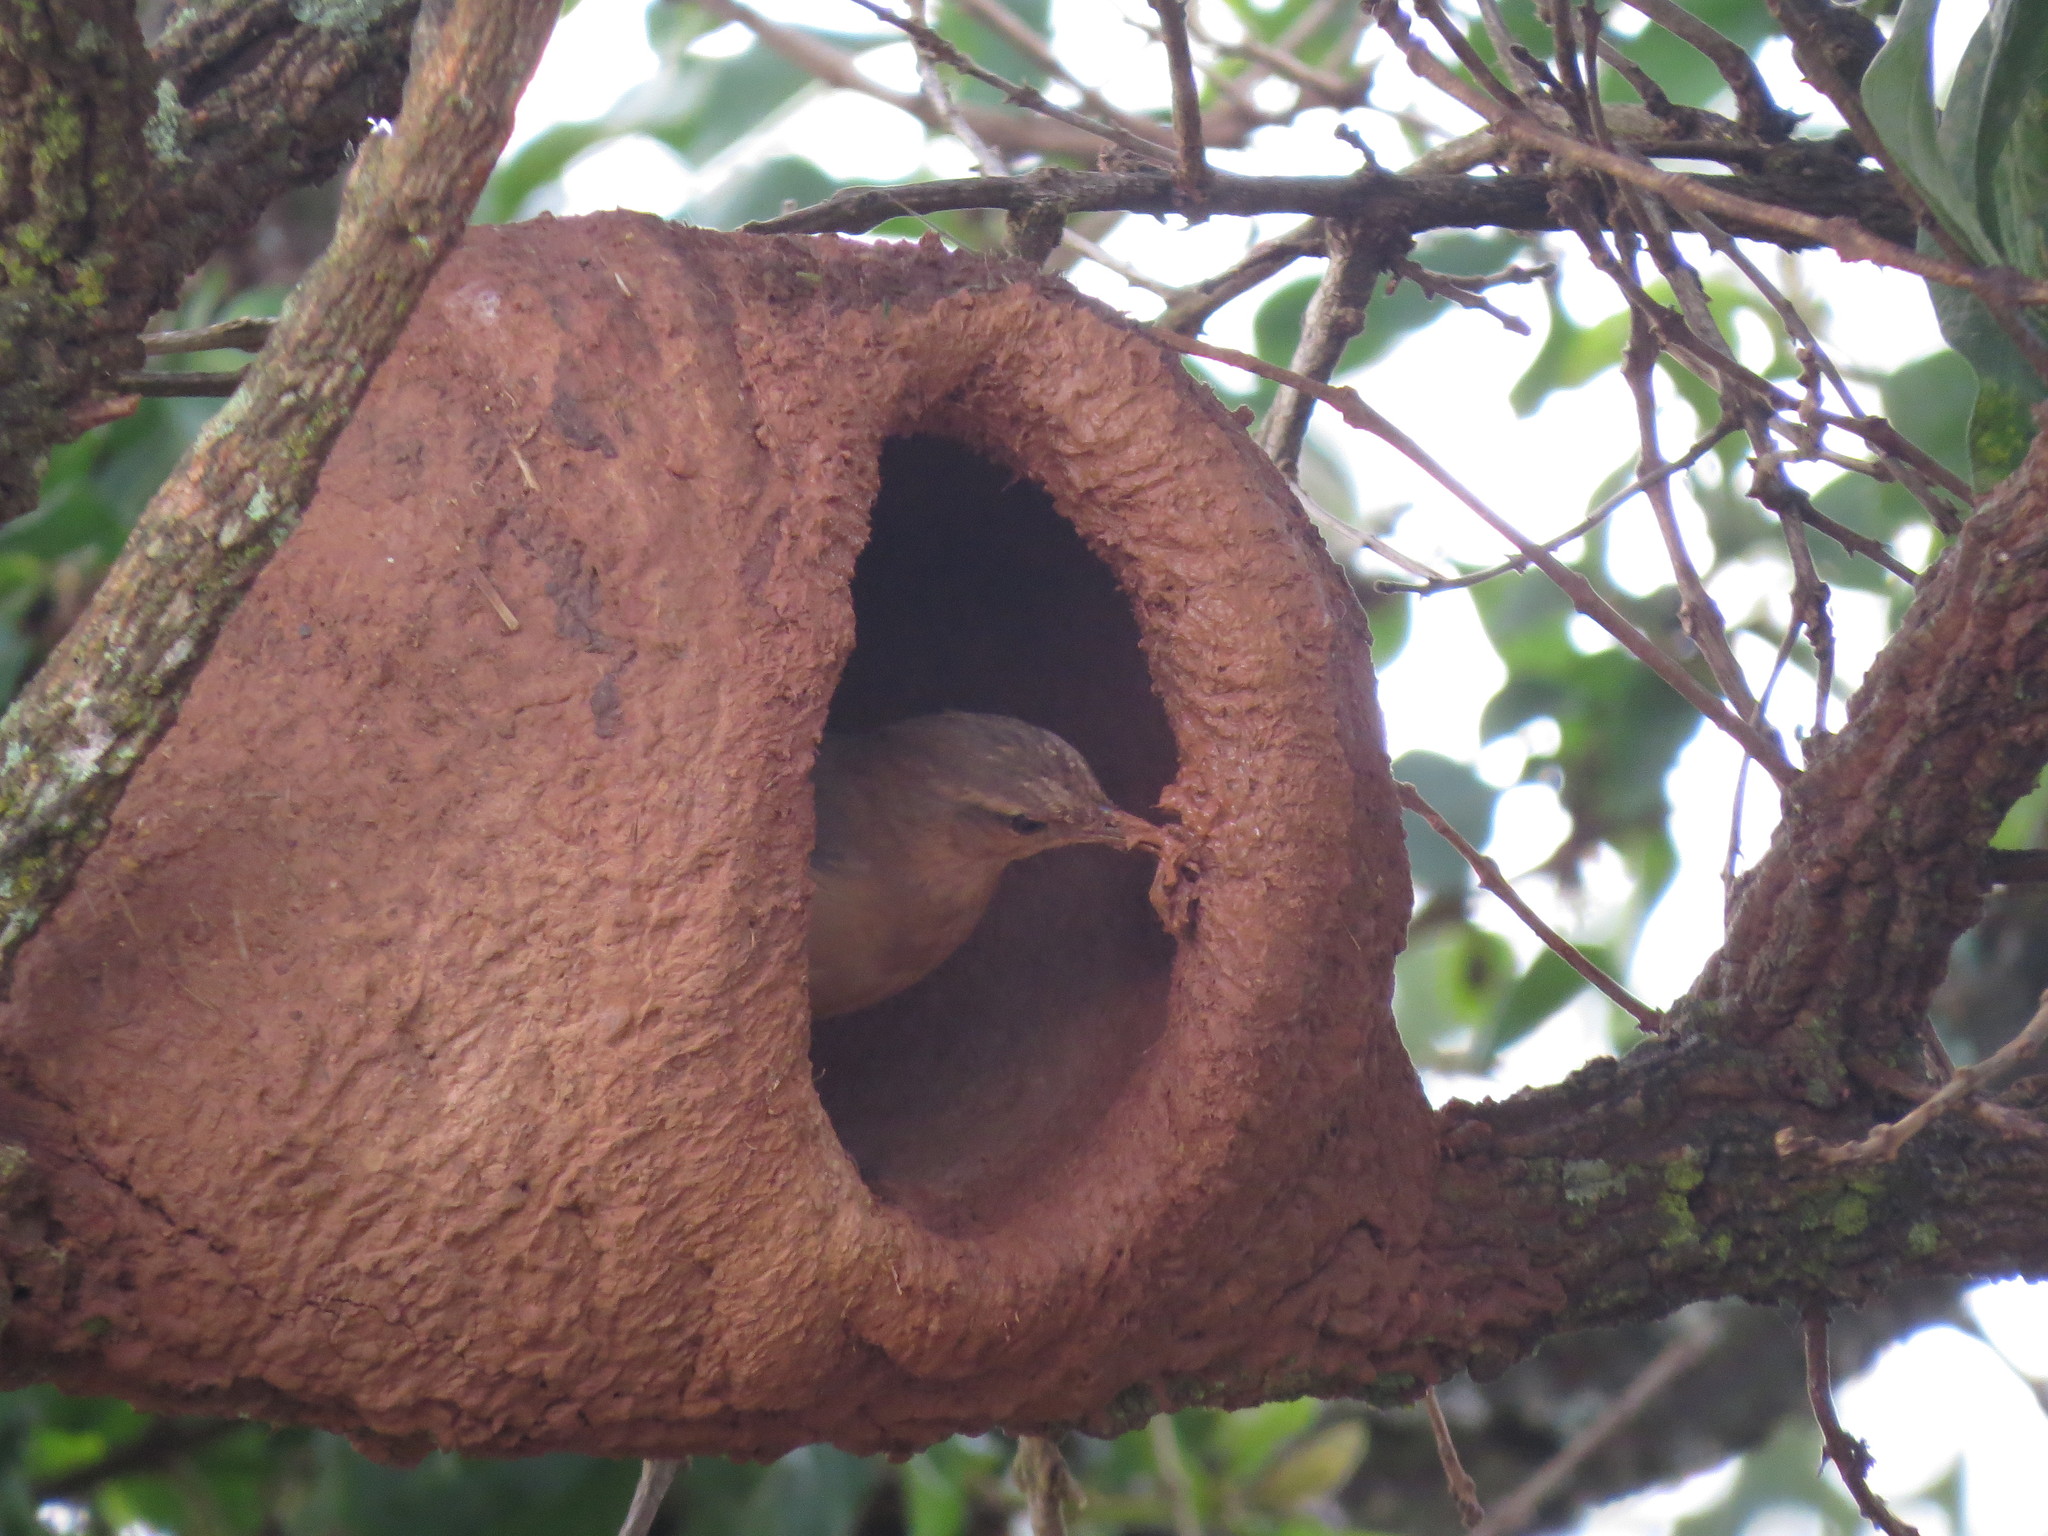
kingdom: Animalia
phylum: Chordata
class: Aves
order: Passeriformes
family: Furnariidae
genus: Furnarius
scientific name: Furnarius rufus
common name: Rufous hornero
